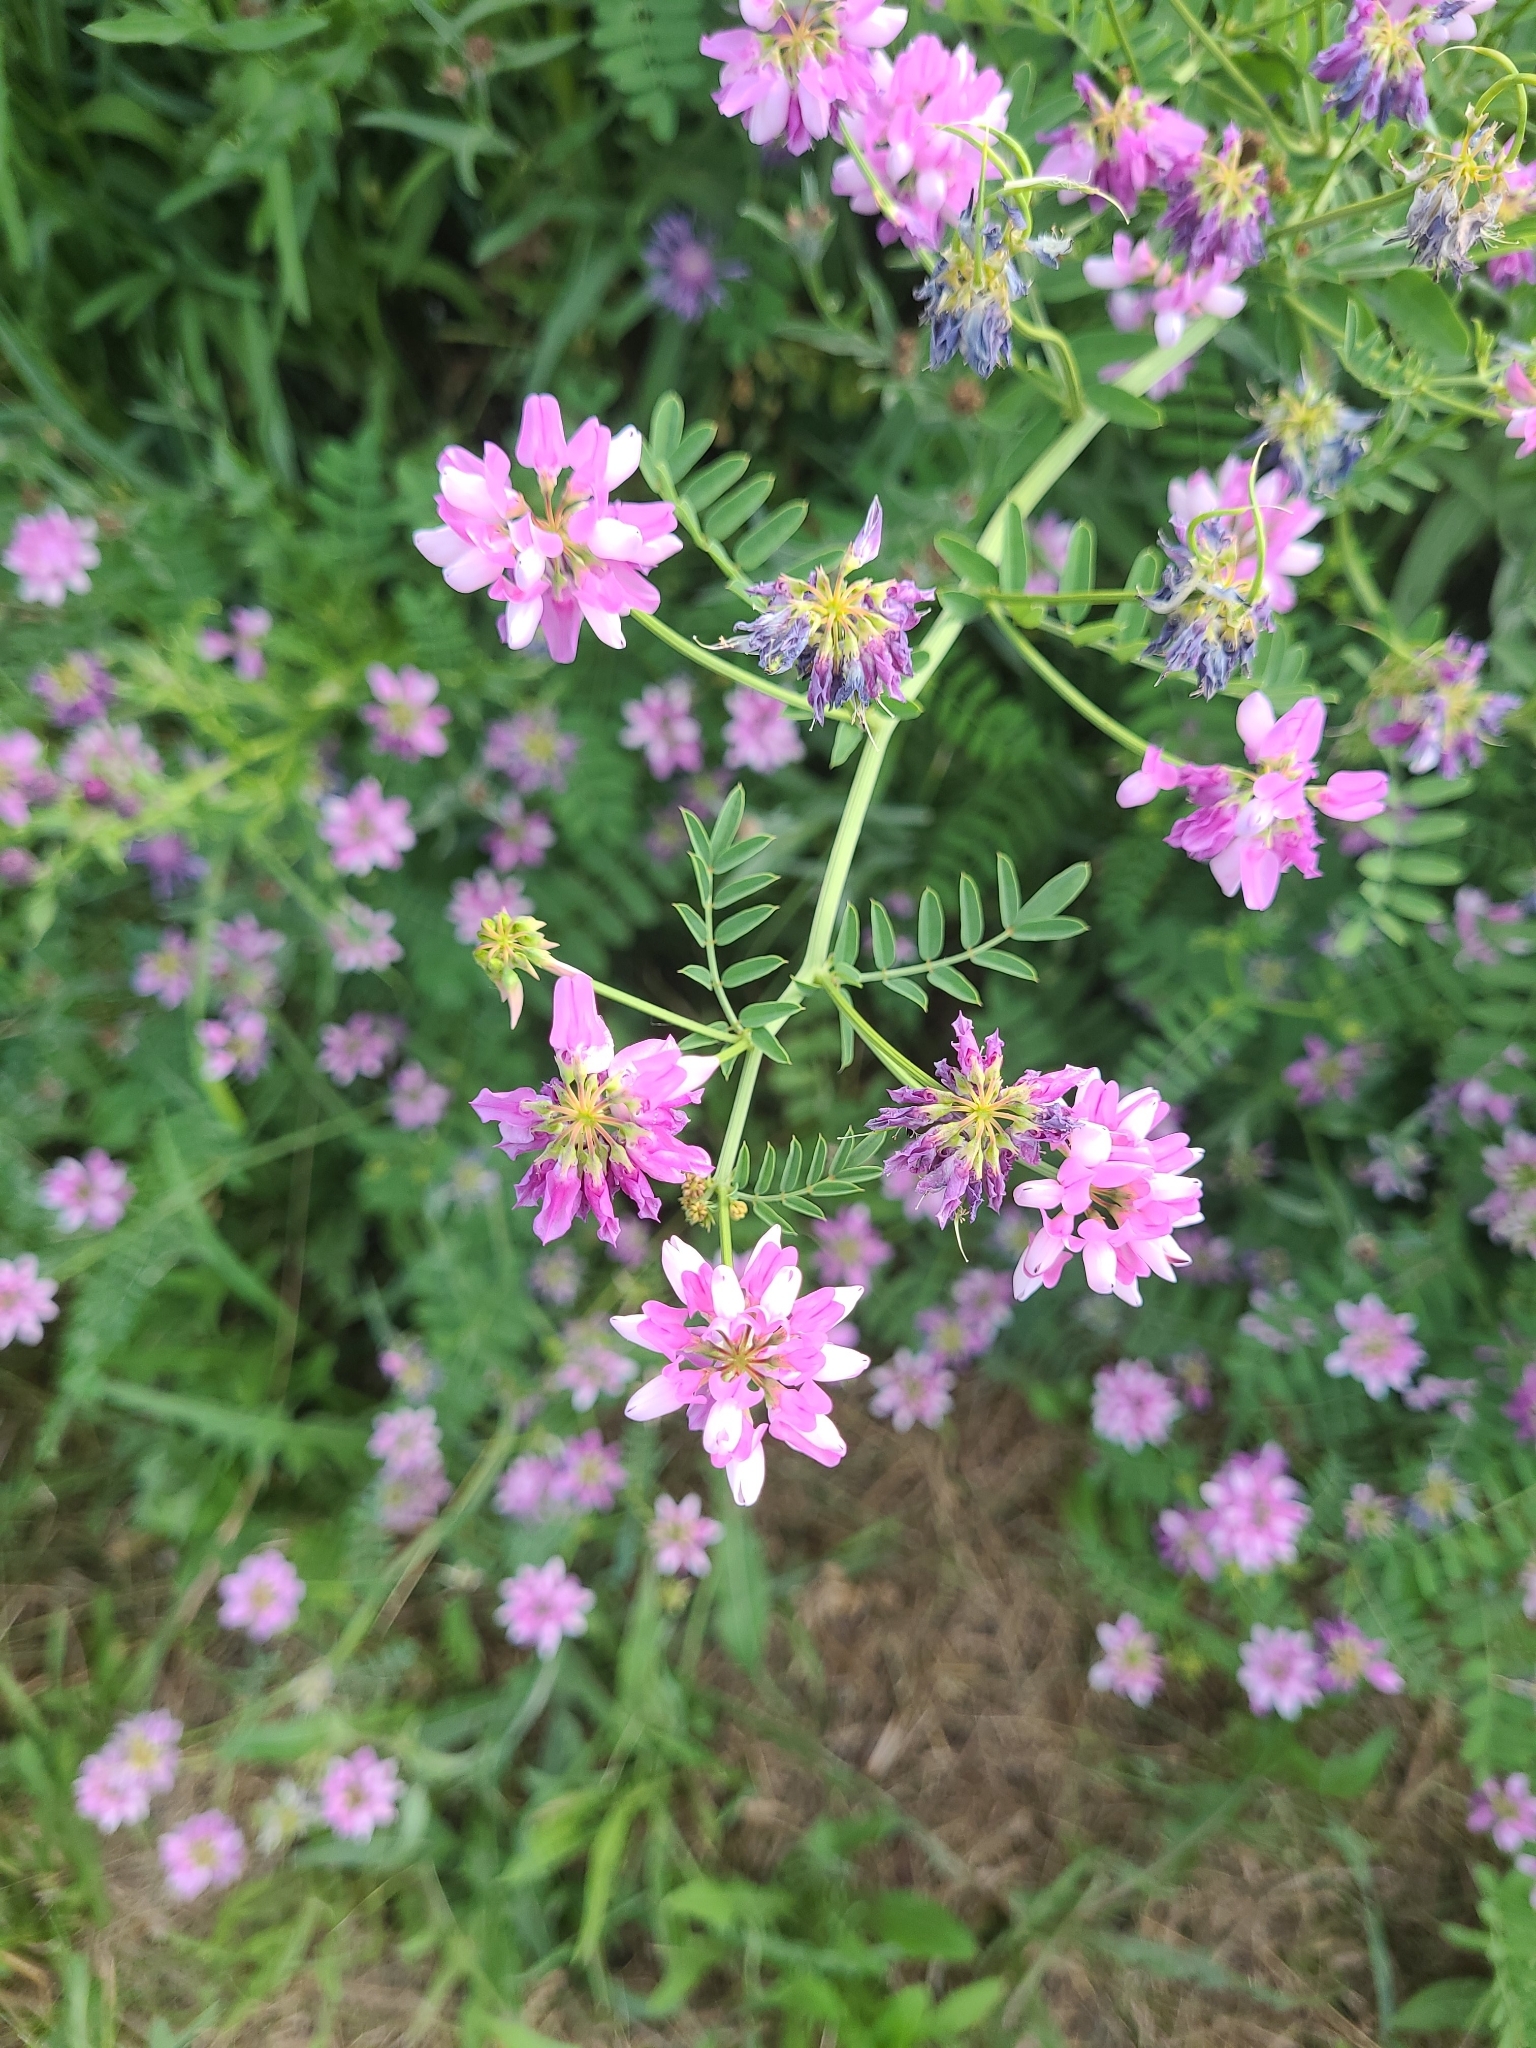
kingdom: Plantae
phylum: Tracheophyta
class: Magnoliopsida
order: Fabales
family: Fabaceae
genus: Coronilla
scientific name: Coronilla varia
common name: Crownvetch
